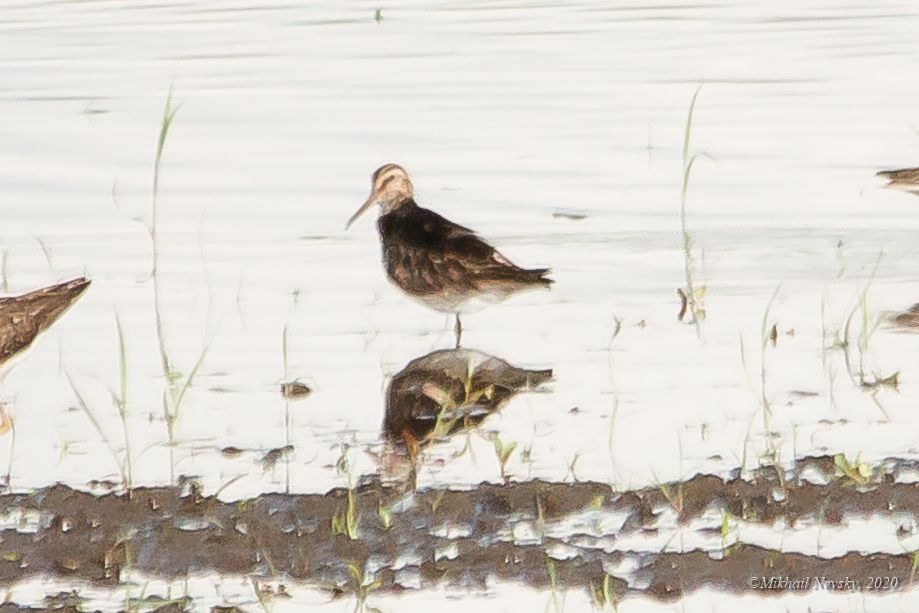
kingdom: Animalia
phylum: Chordata
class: Aves
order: Charadriiformes
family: Scolopacidae
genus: Calidris
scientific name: Calidris falcinellus
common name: Broad-billed sandpiper
